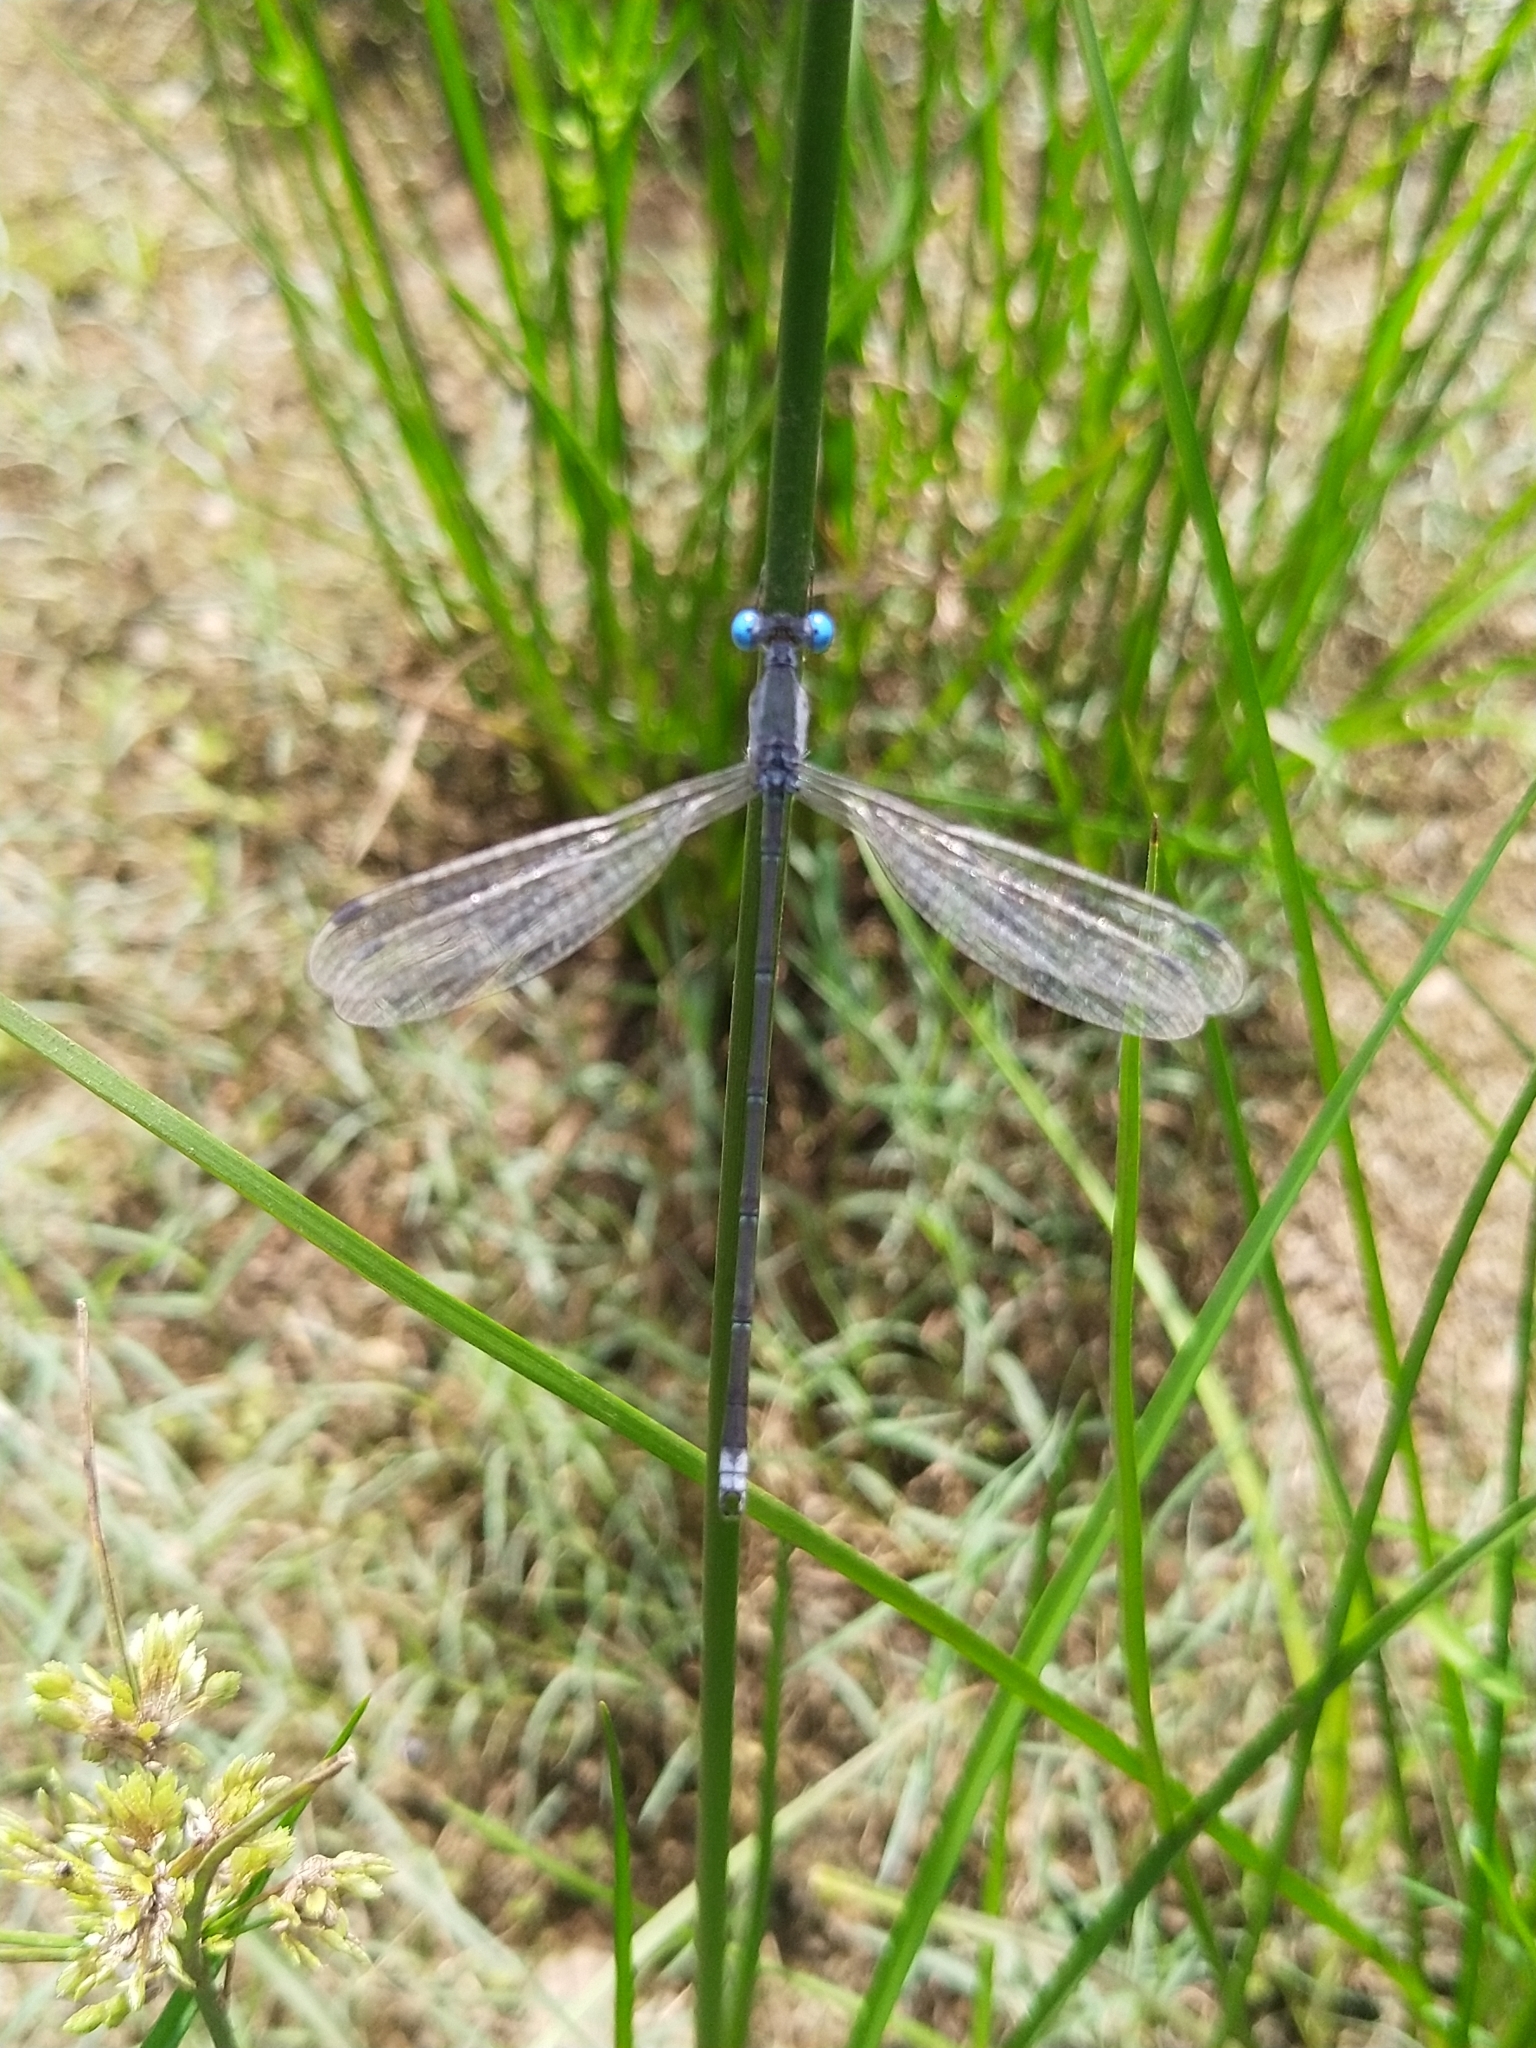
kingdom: Animalia
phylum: Arthropoda
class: Insecta
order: Odonata
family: Lestidae
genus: Lestes
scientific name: Lestes malabaricus
